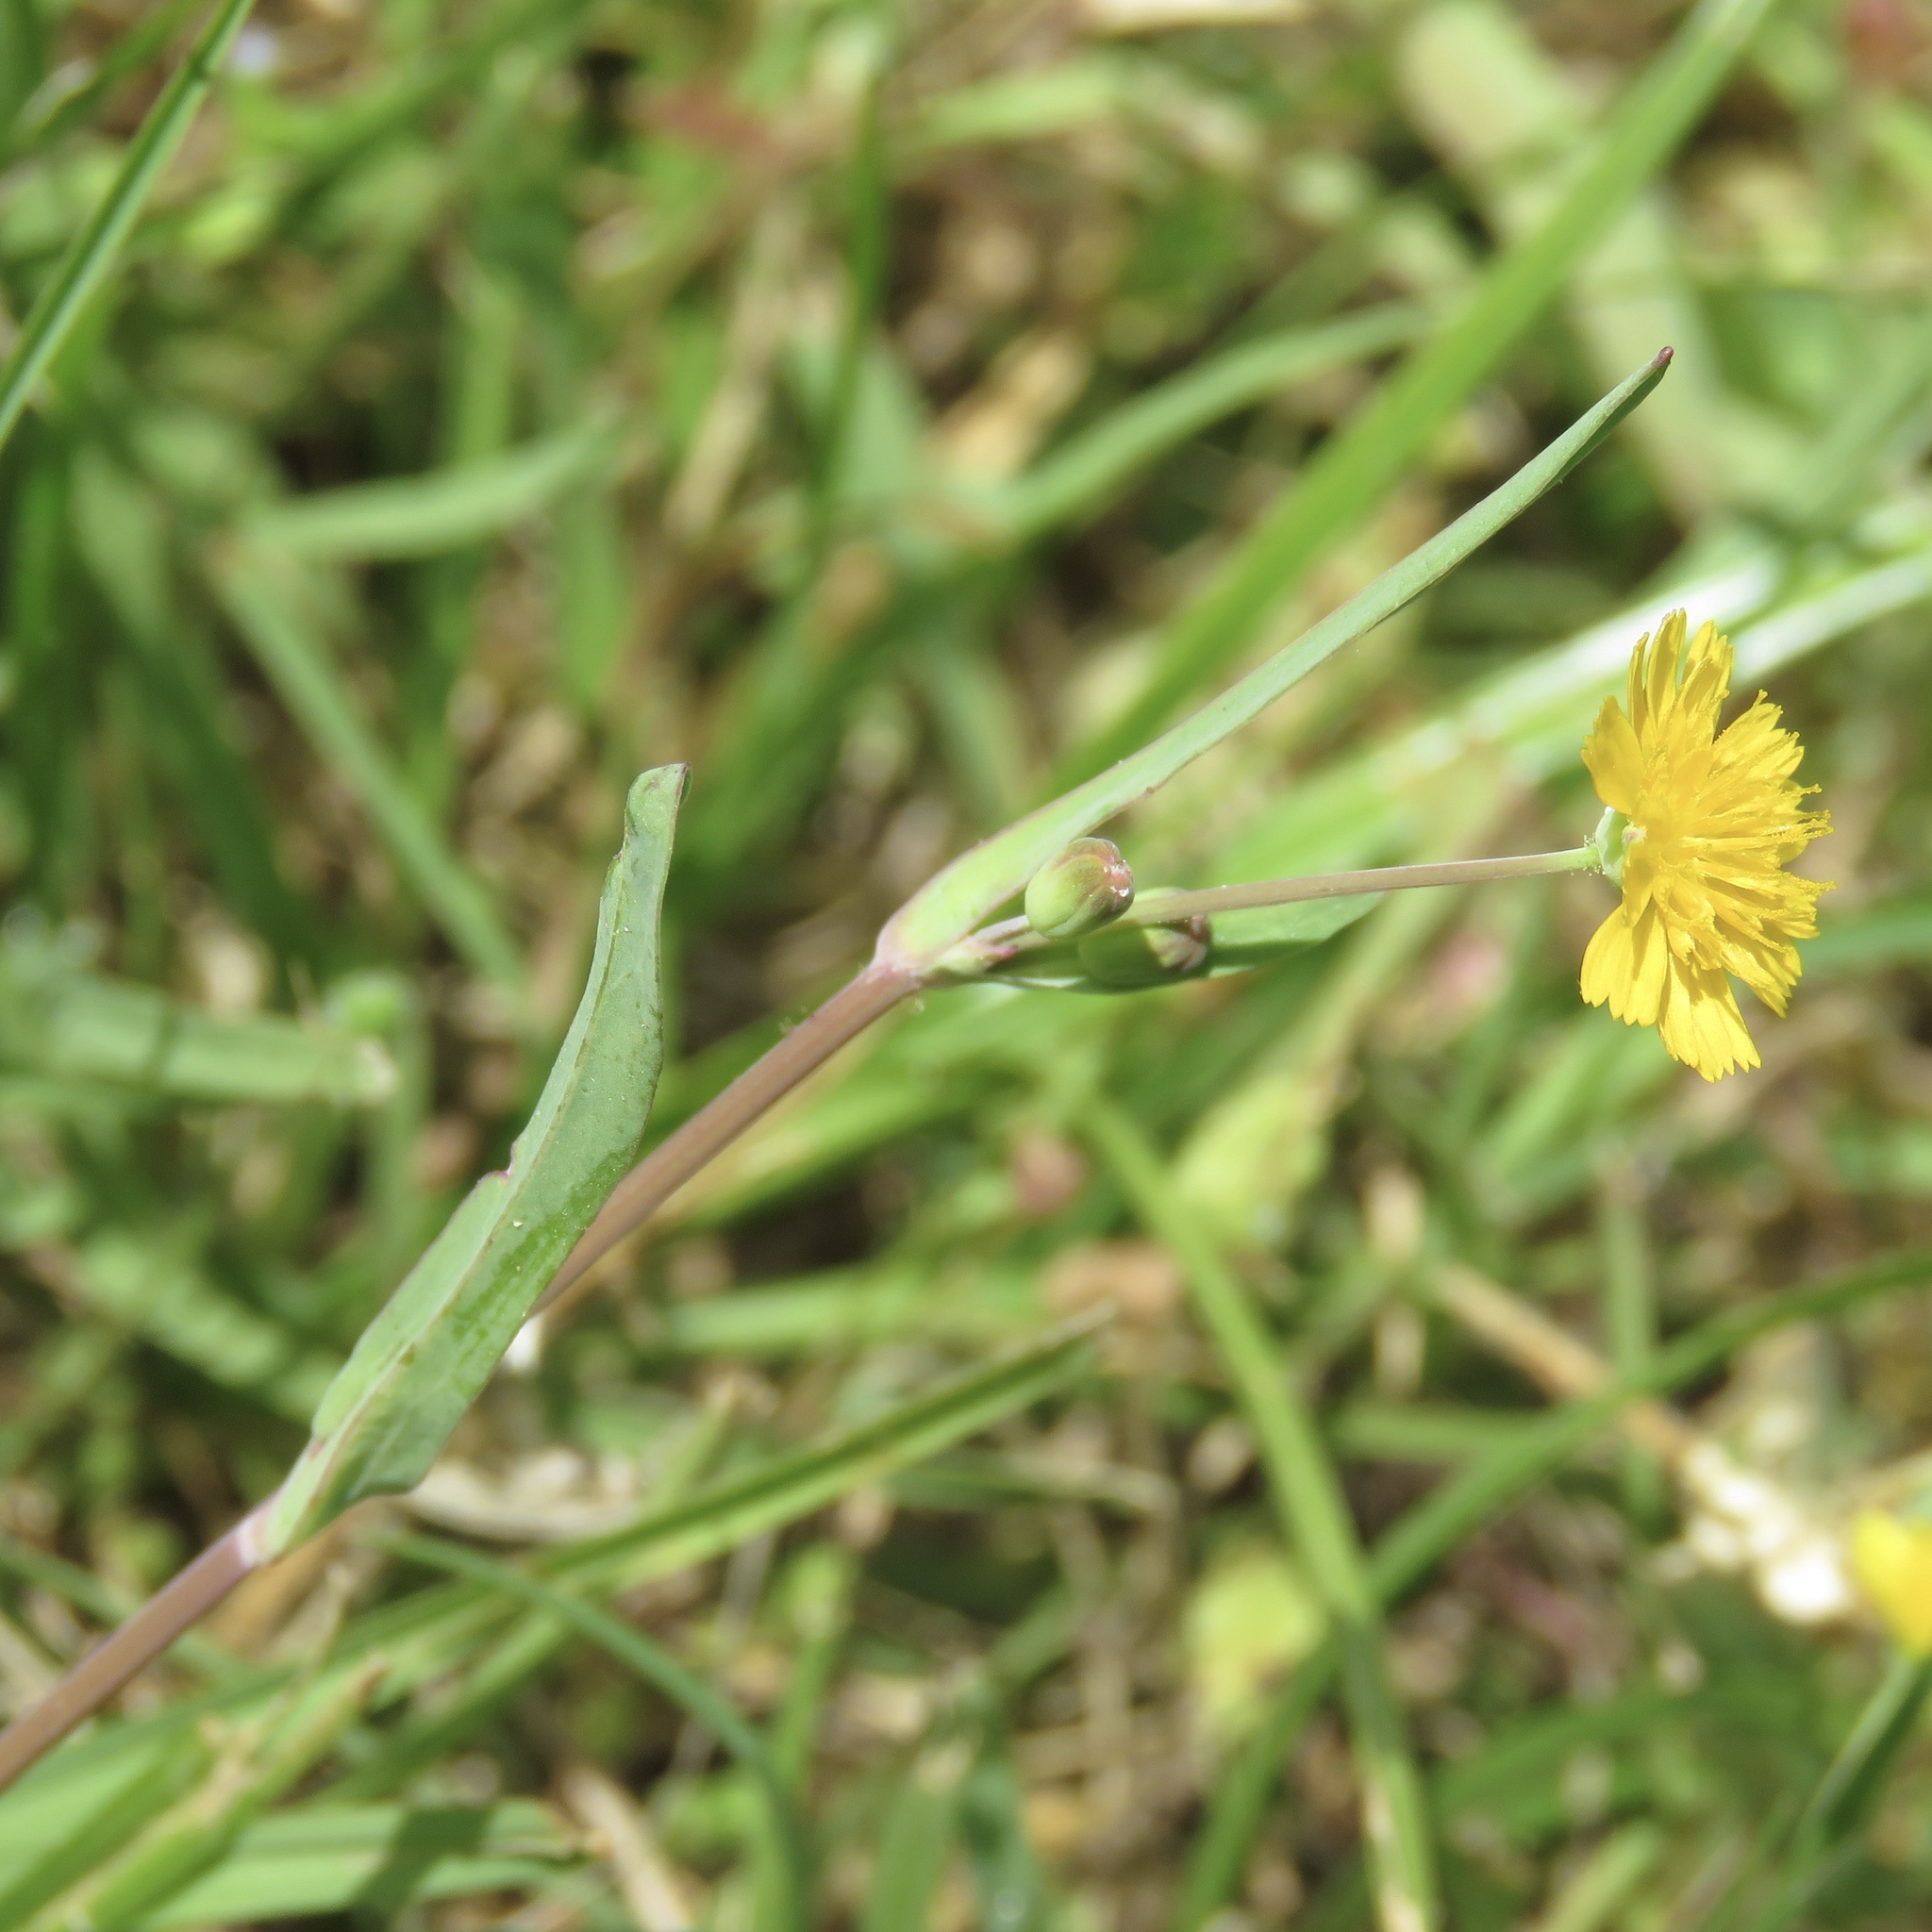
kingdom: Plantae
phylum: Tracheophyta
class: Magnoliopsida
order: Asterales
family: Asteraceae
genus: Krigia
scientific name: Krigia cespitosa
